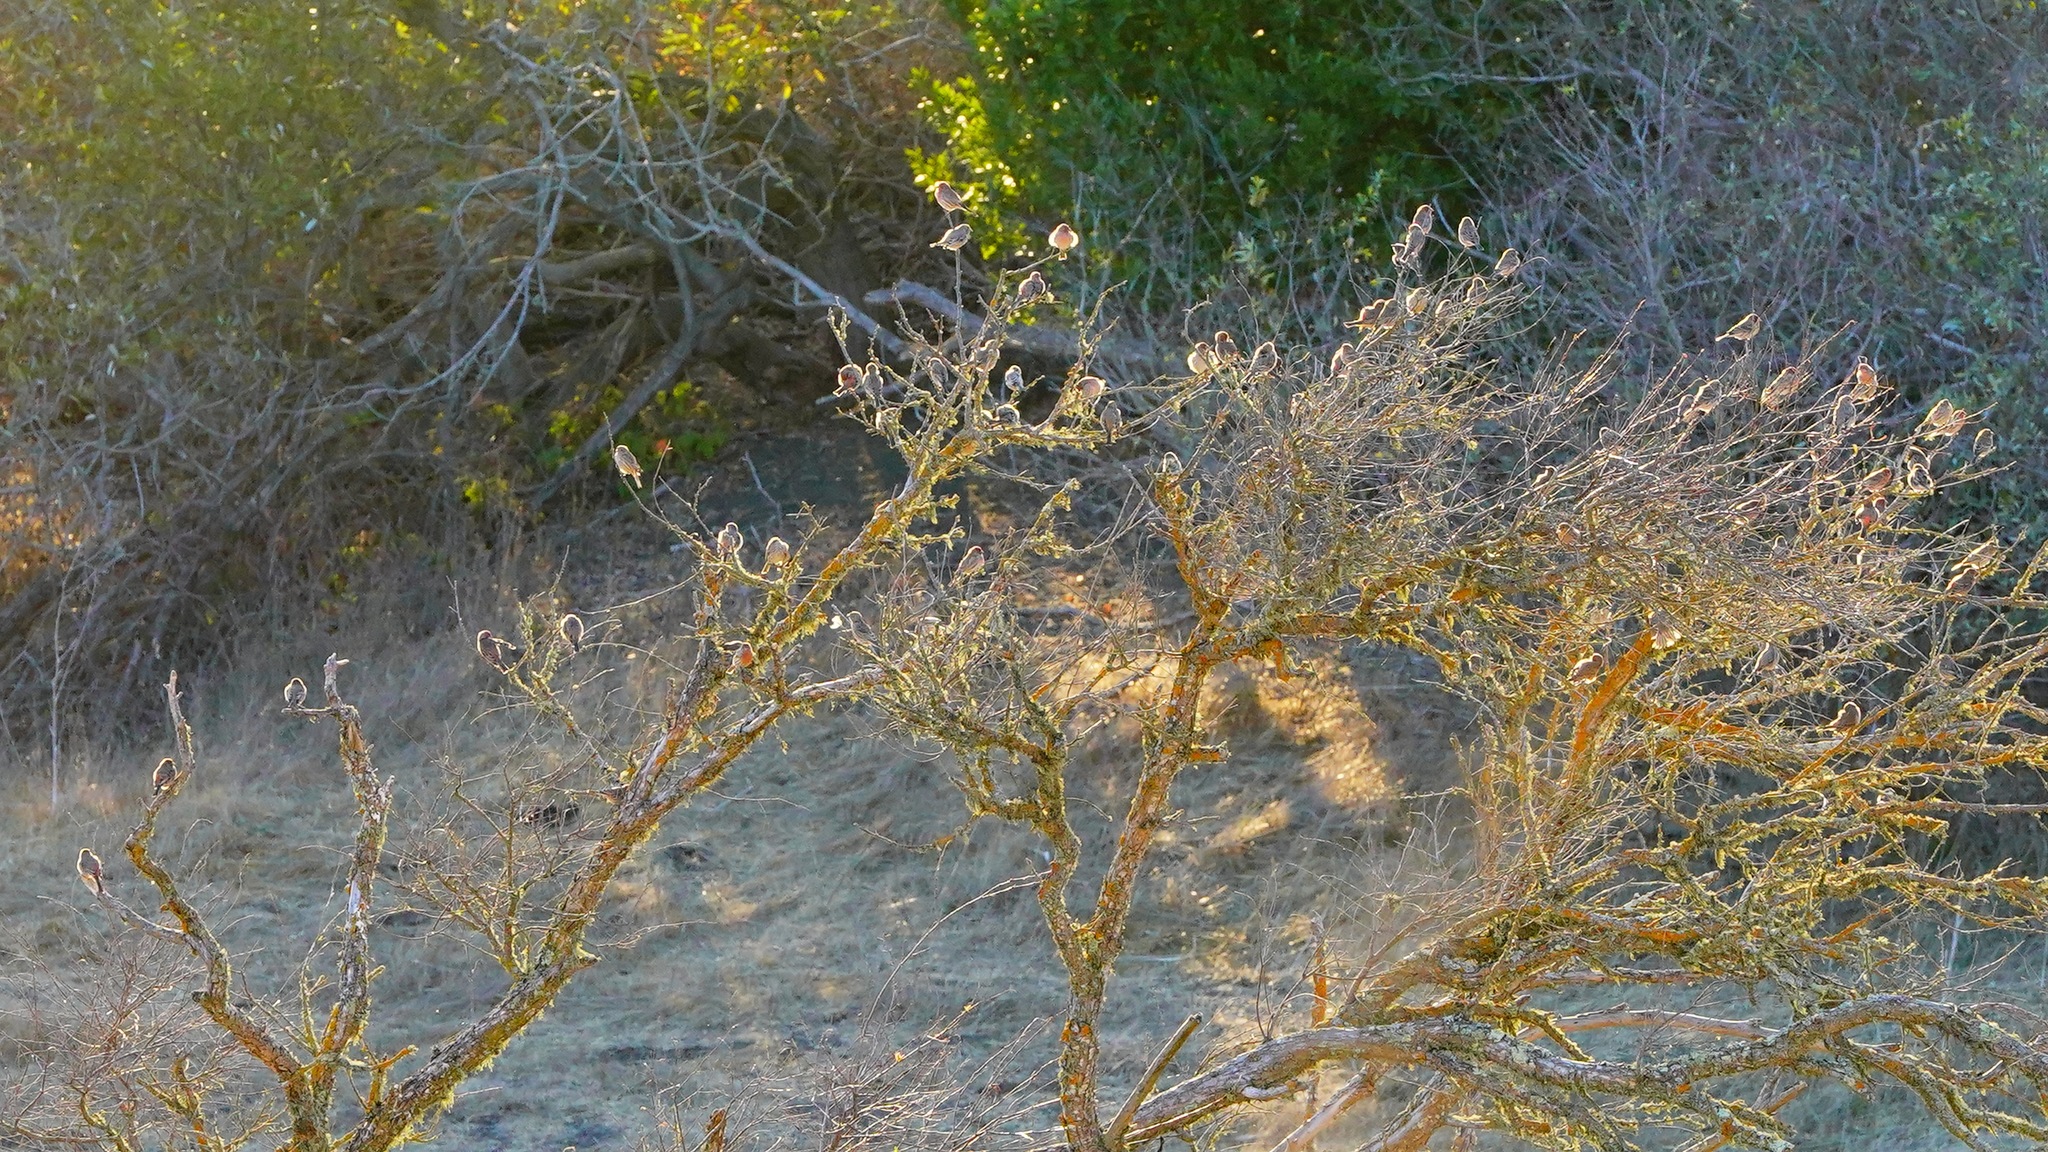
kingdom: Animalia
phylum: Chordata
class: Aves
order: Passeriformes
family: Fringillidae
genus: Haemorhous
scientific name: Haemorhous mexicanus
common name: House finch
